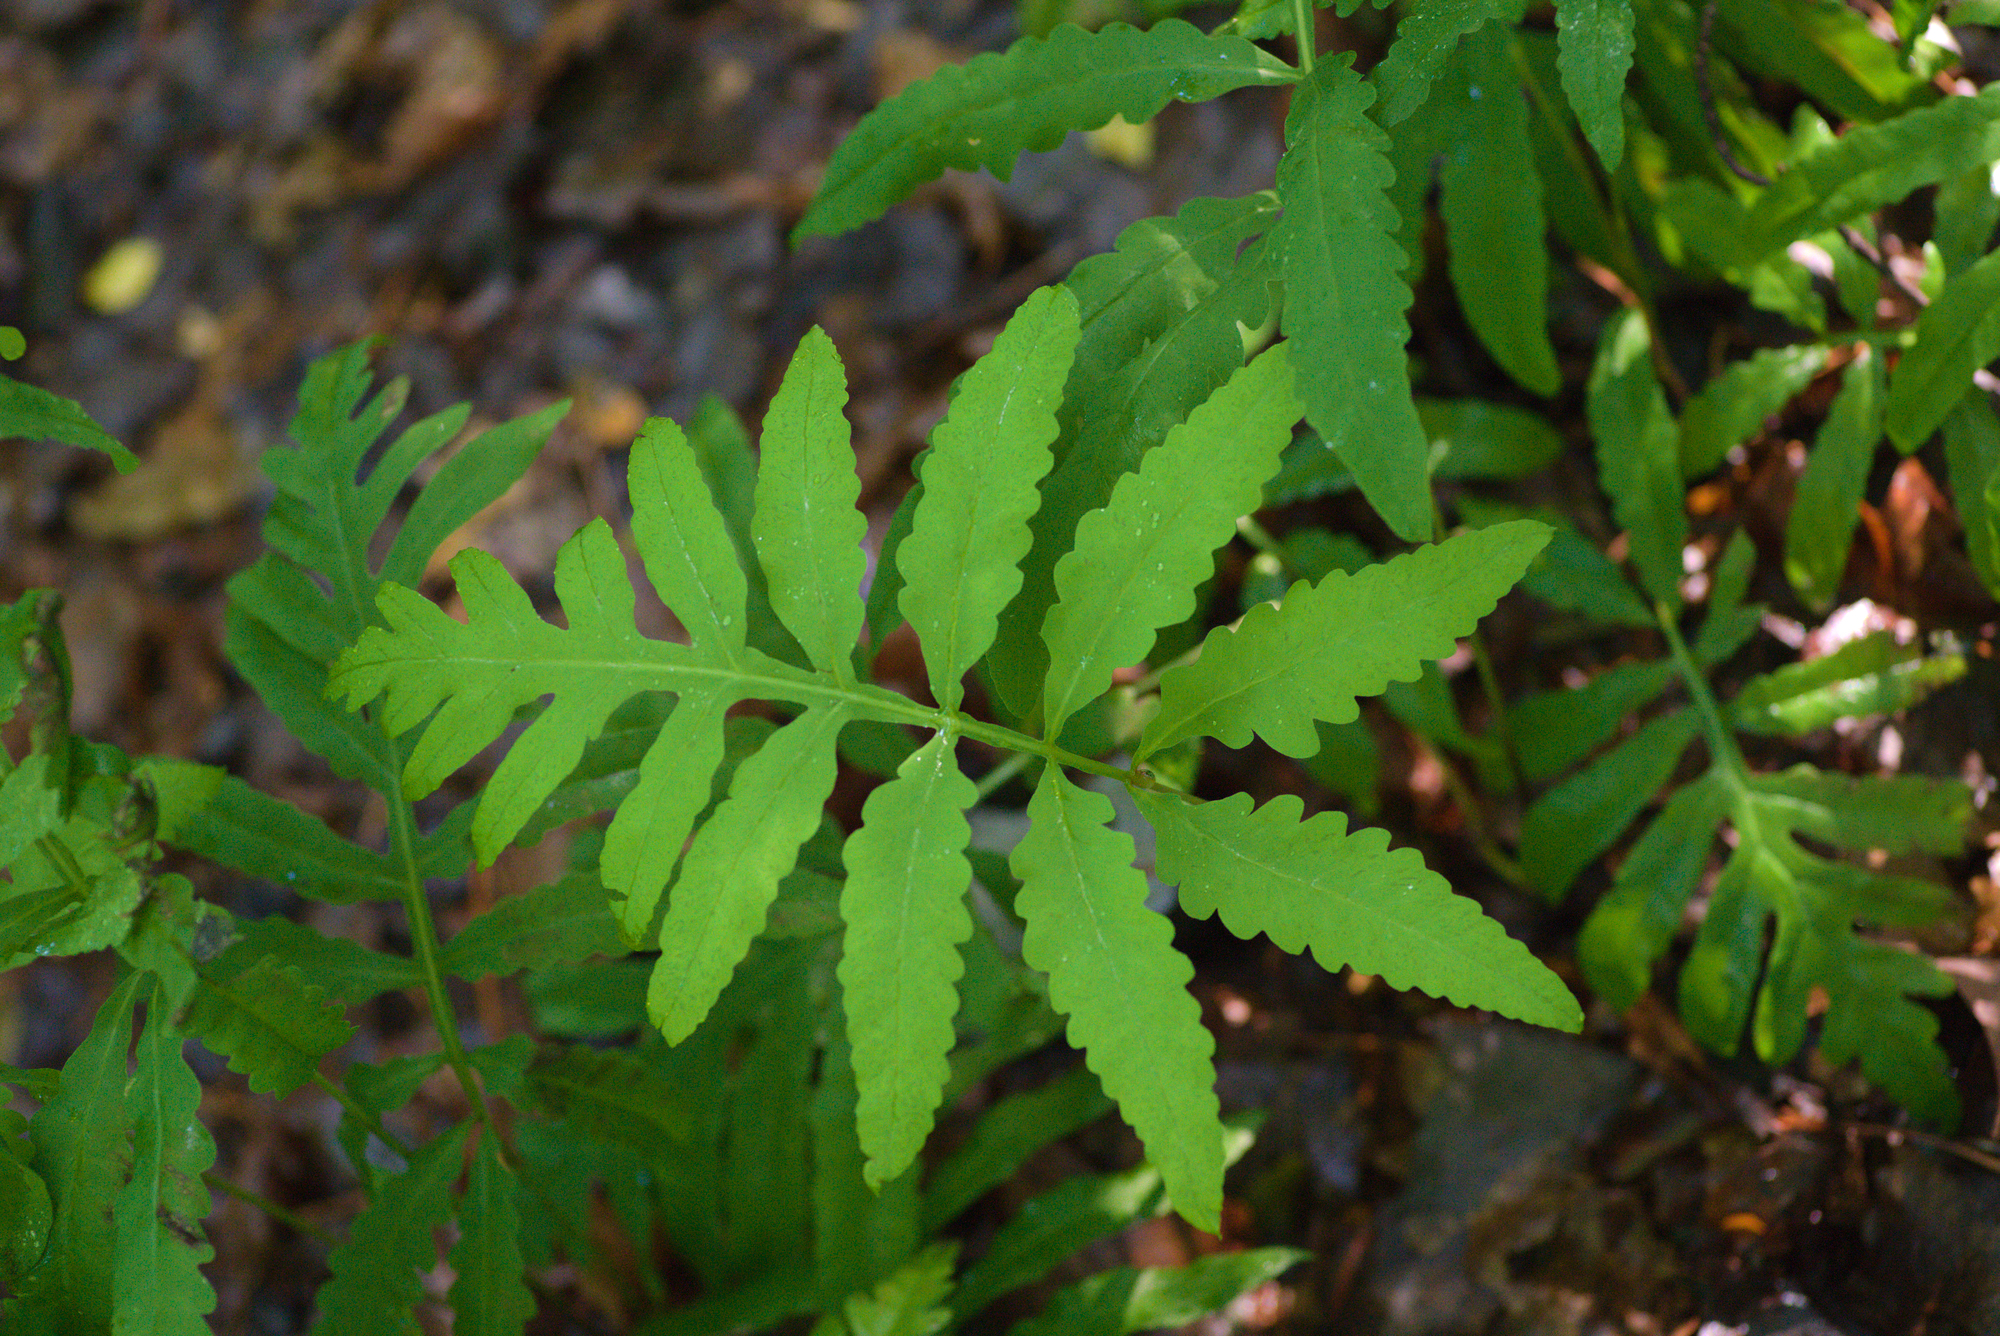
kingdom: Plantae
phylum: Tracheophyta
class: Polypodiopsida
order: Polypodiales
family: Onocleaceae
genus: Onoclea
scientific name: Onoclea sensibilis
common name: Sensitive fern
